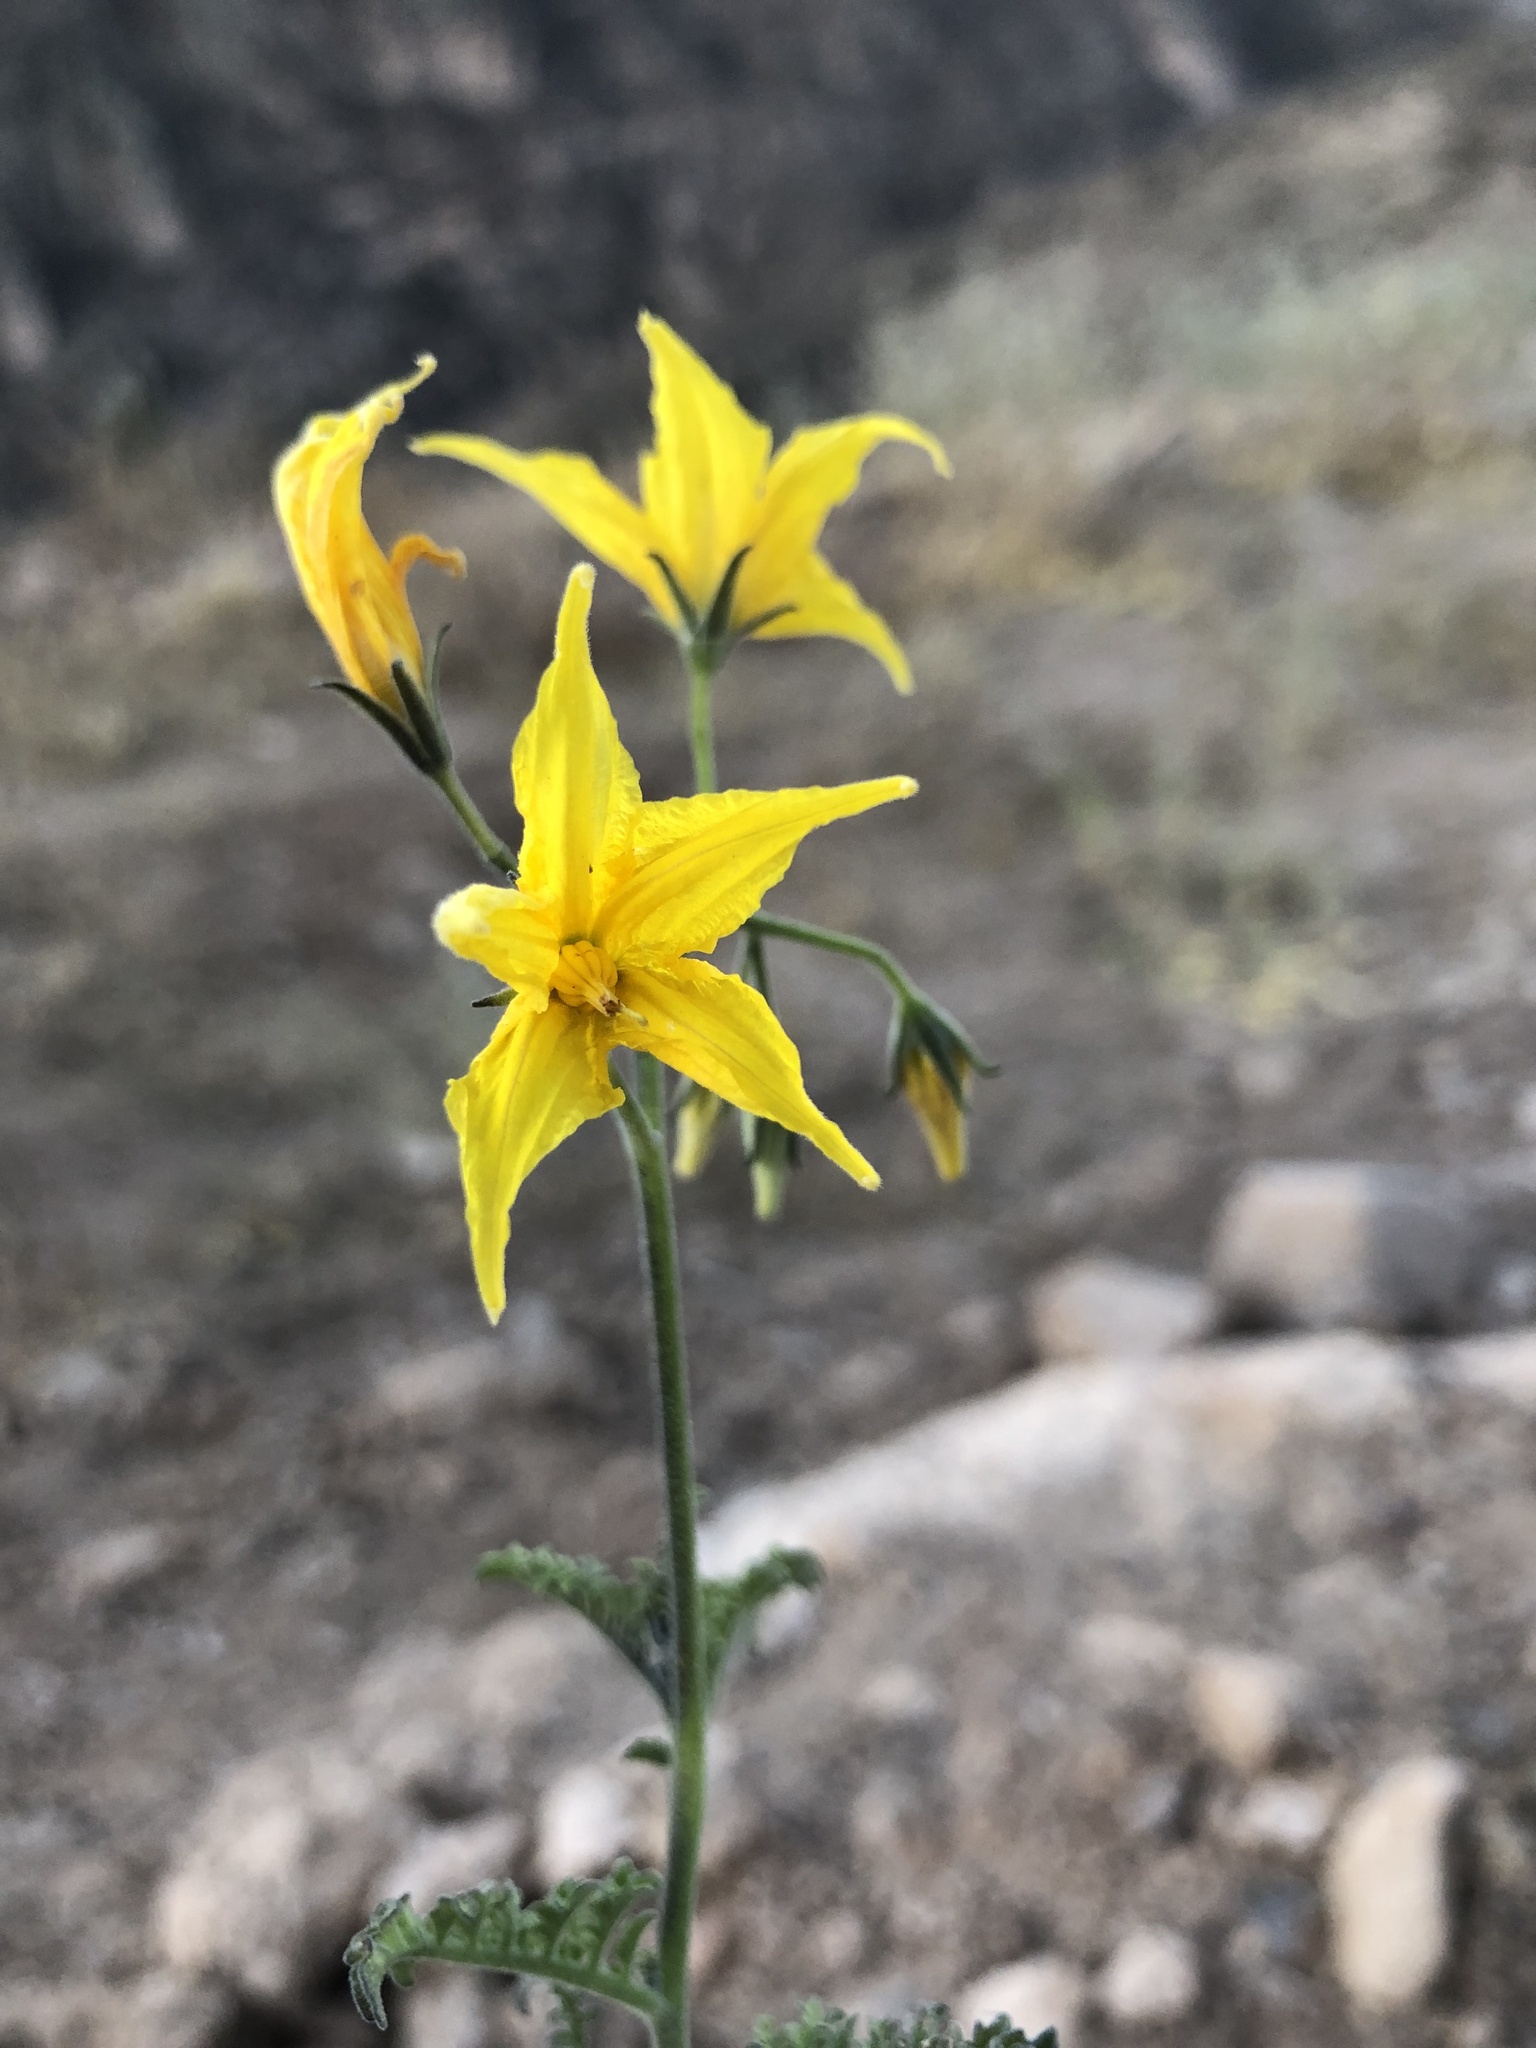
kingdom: Plantae
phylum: Tracheophyta
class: Magnoliopsida
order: Solanales
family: Solanaceae
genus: Solanum
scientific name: Solanum chilense
